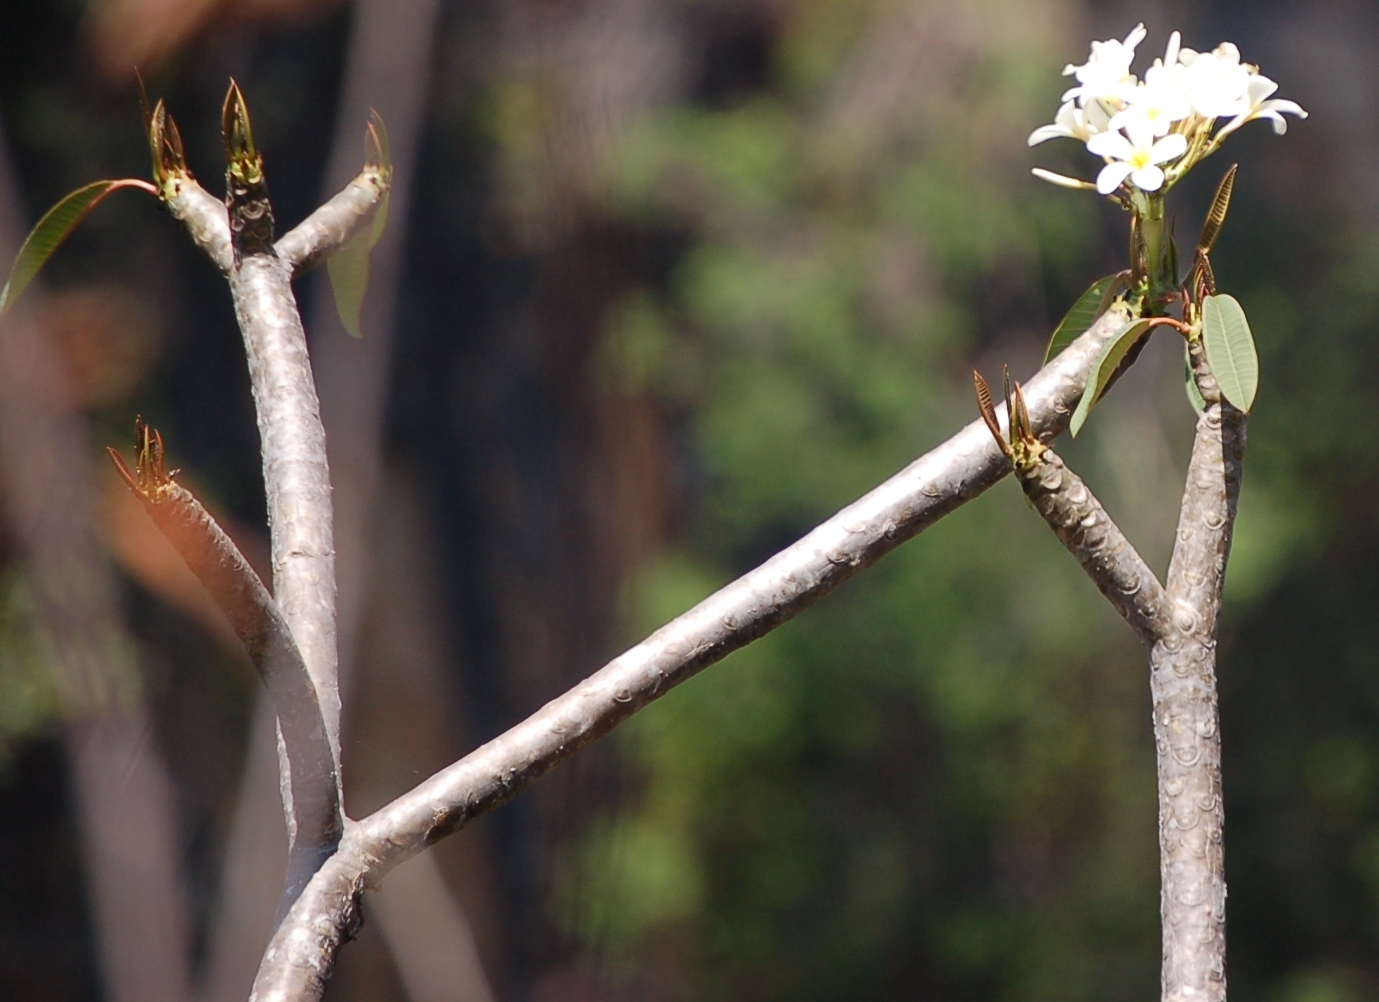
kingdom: Plantae
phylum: Tracheophyta
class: Magnoliopsida
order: Gentianales
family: Apocynaceae
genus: Plumeria
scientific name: Plumeria rubra
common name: Pagoda-tree
